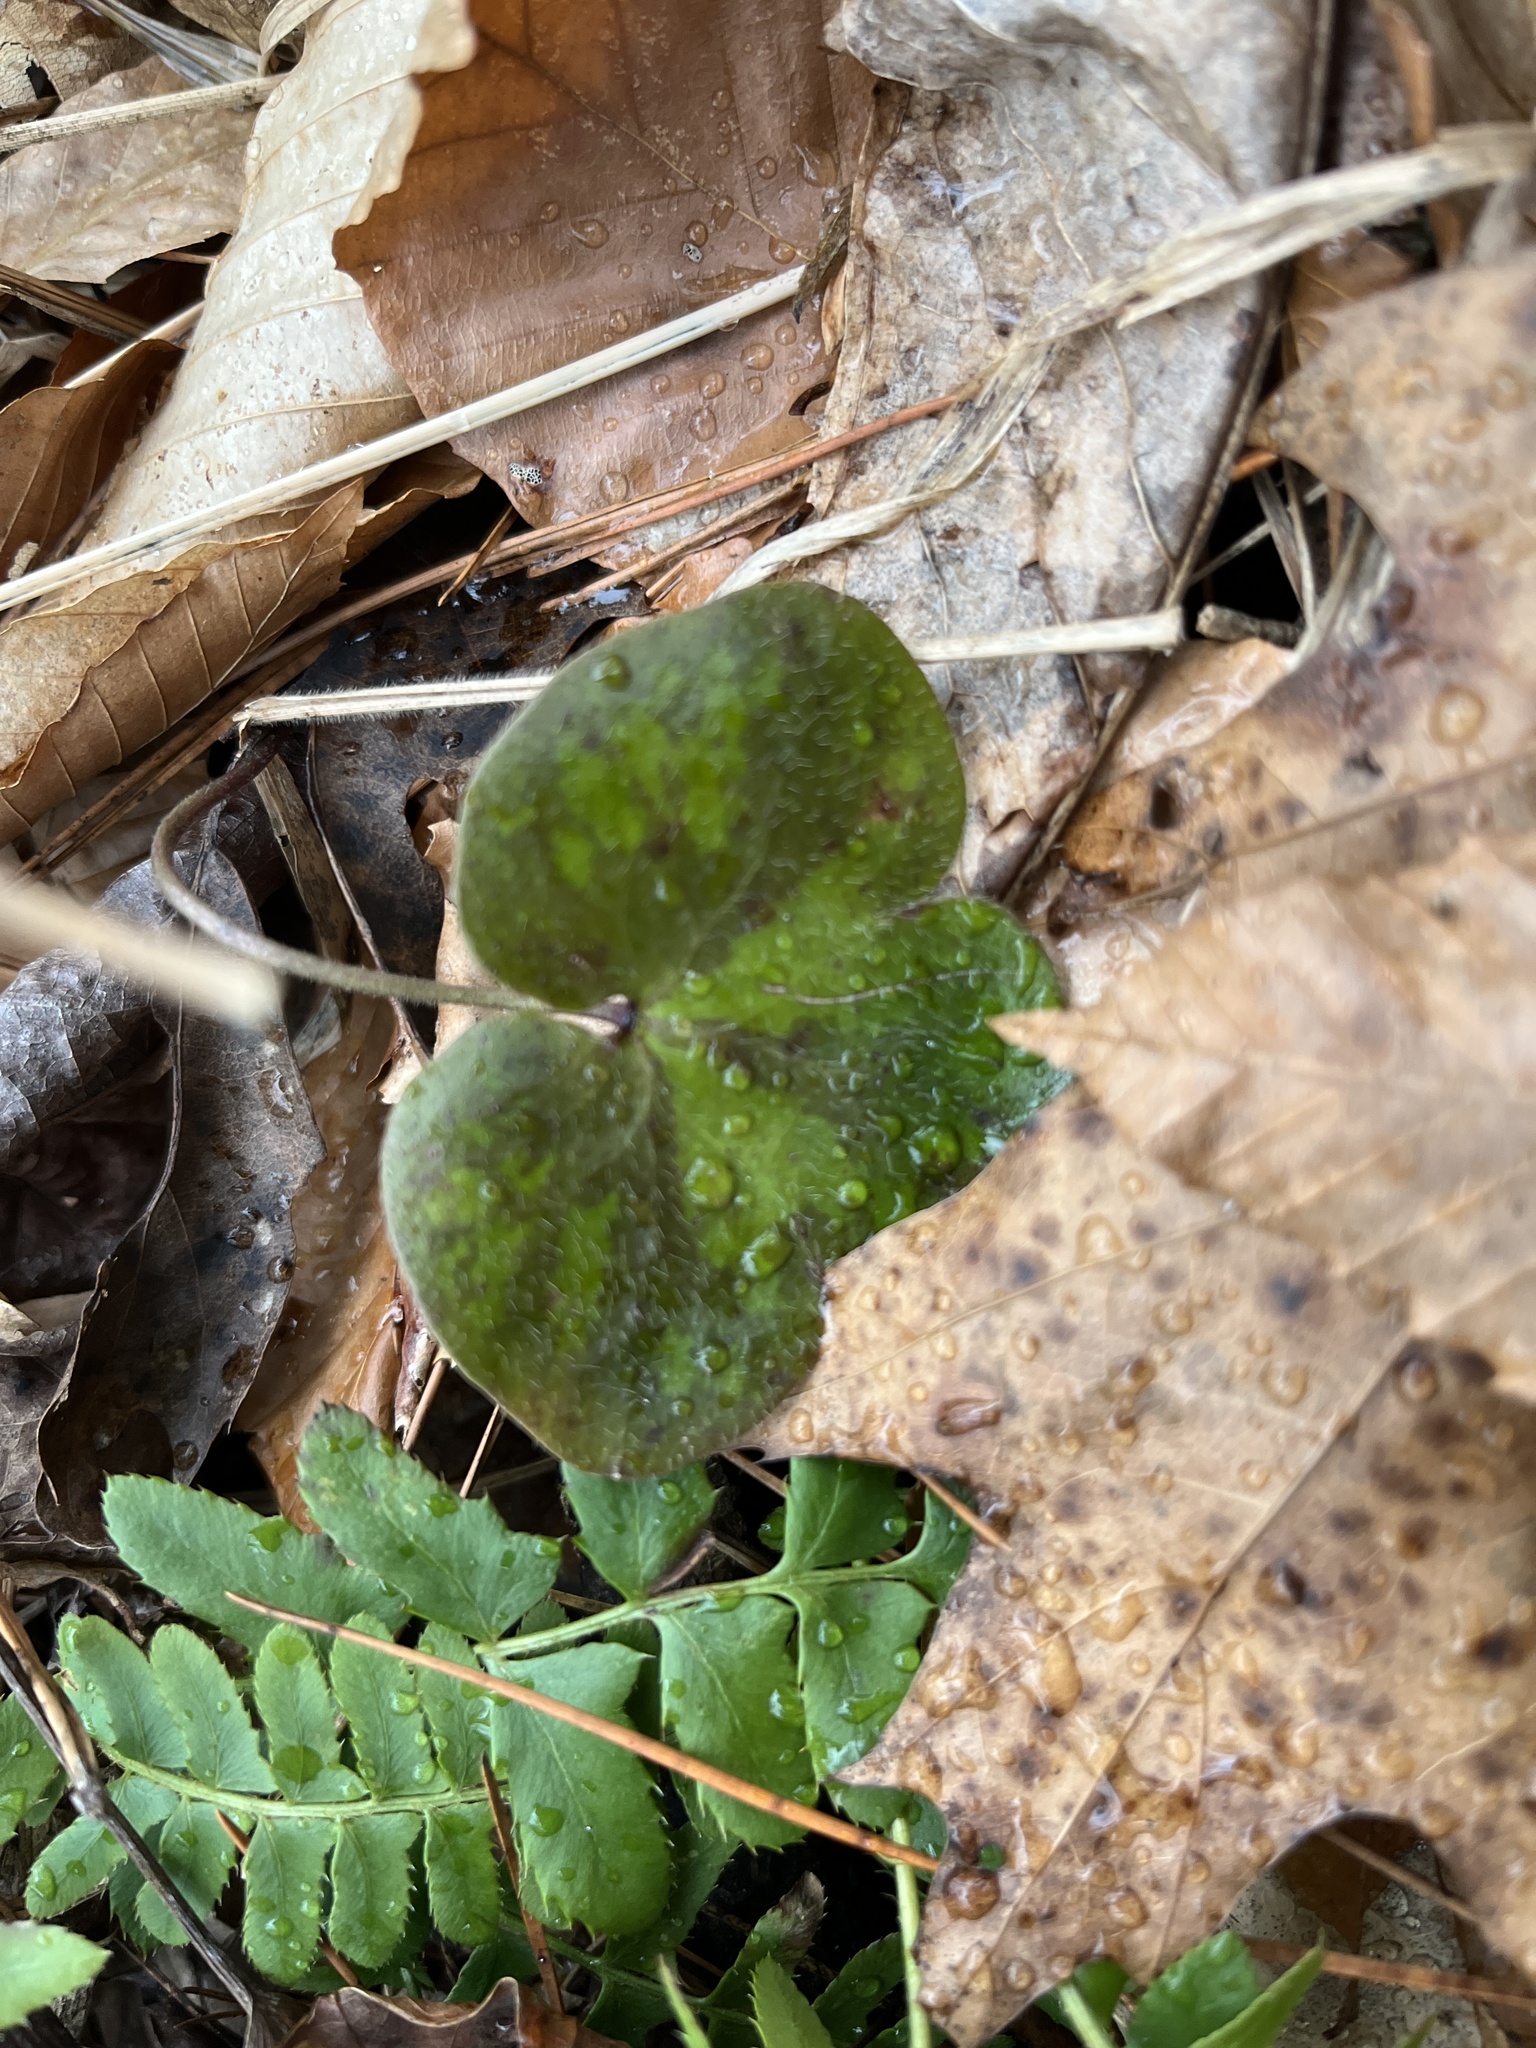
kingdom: Plantae
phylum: Tracheophyta
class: Magnoliopsida
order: Ranunculales
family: Ranunculaceae
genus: Hepatica
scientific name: Hepatica americana
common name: American hepatica
